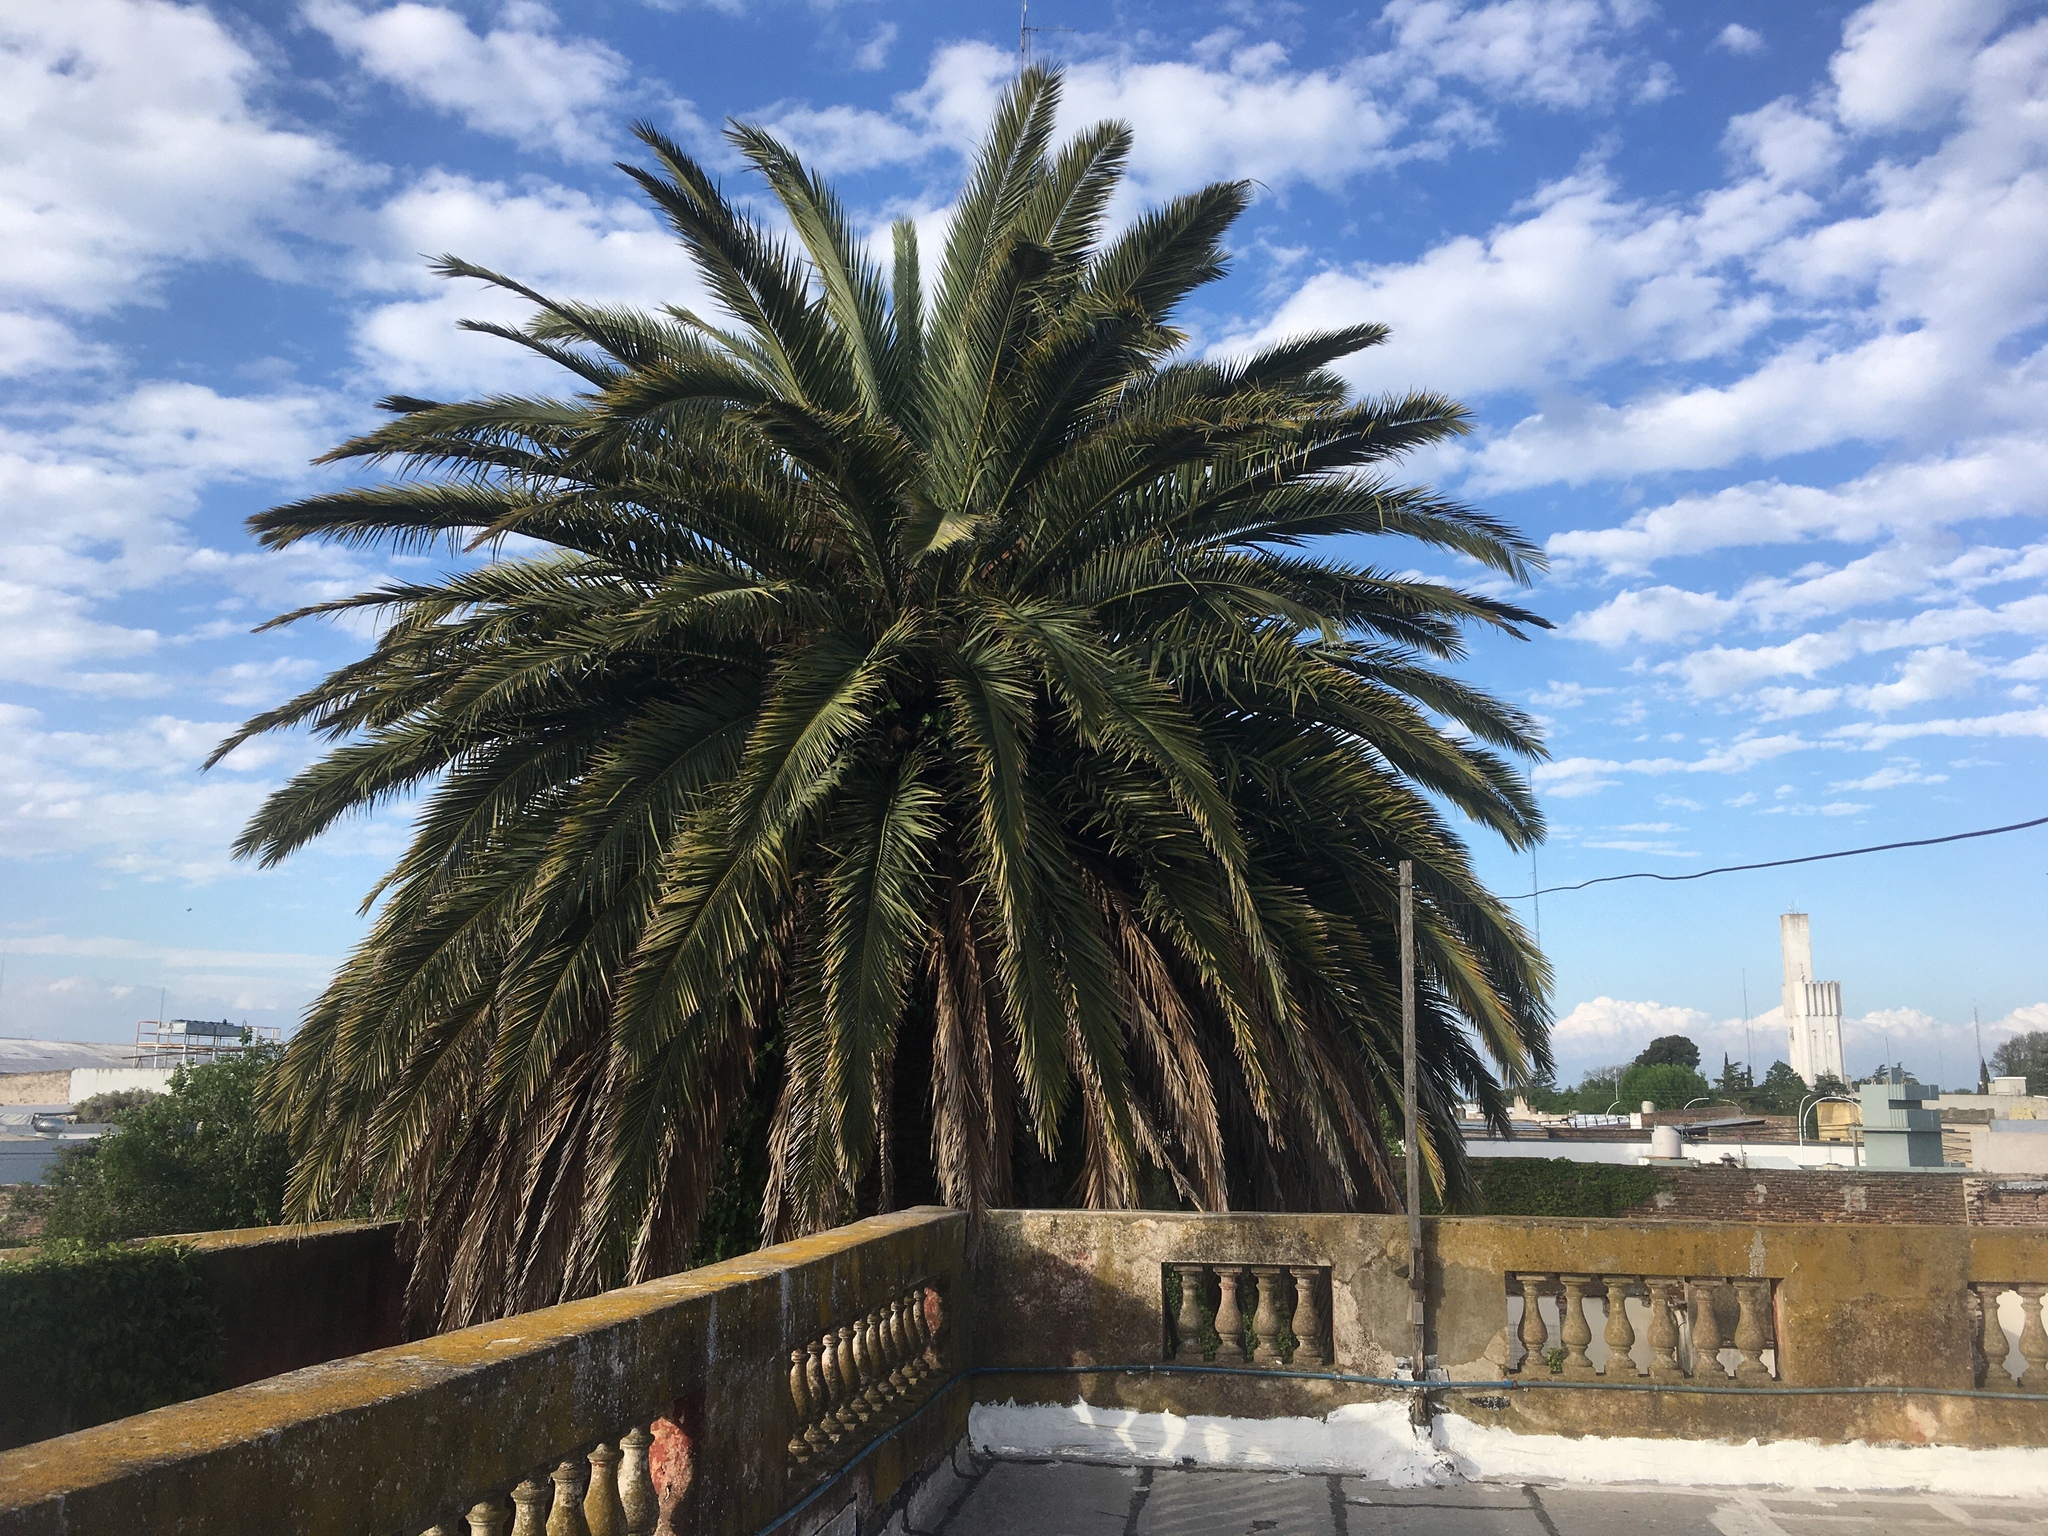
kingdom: Animalia
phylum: Chordata
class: Aves
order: Apodiformes
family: Trochilidae
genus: Chlorostilbon
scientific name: Chlorostilbon lucidus
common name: Glittering-bellied emerald
